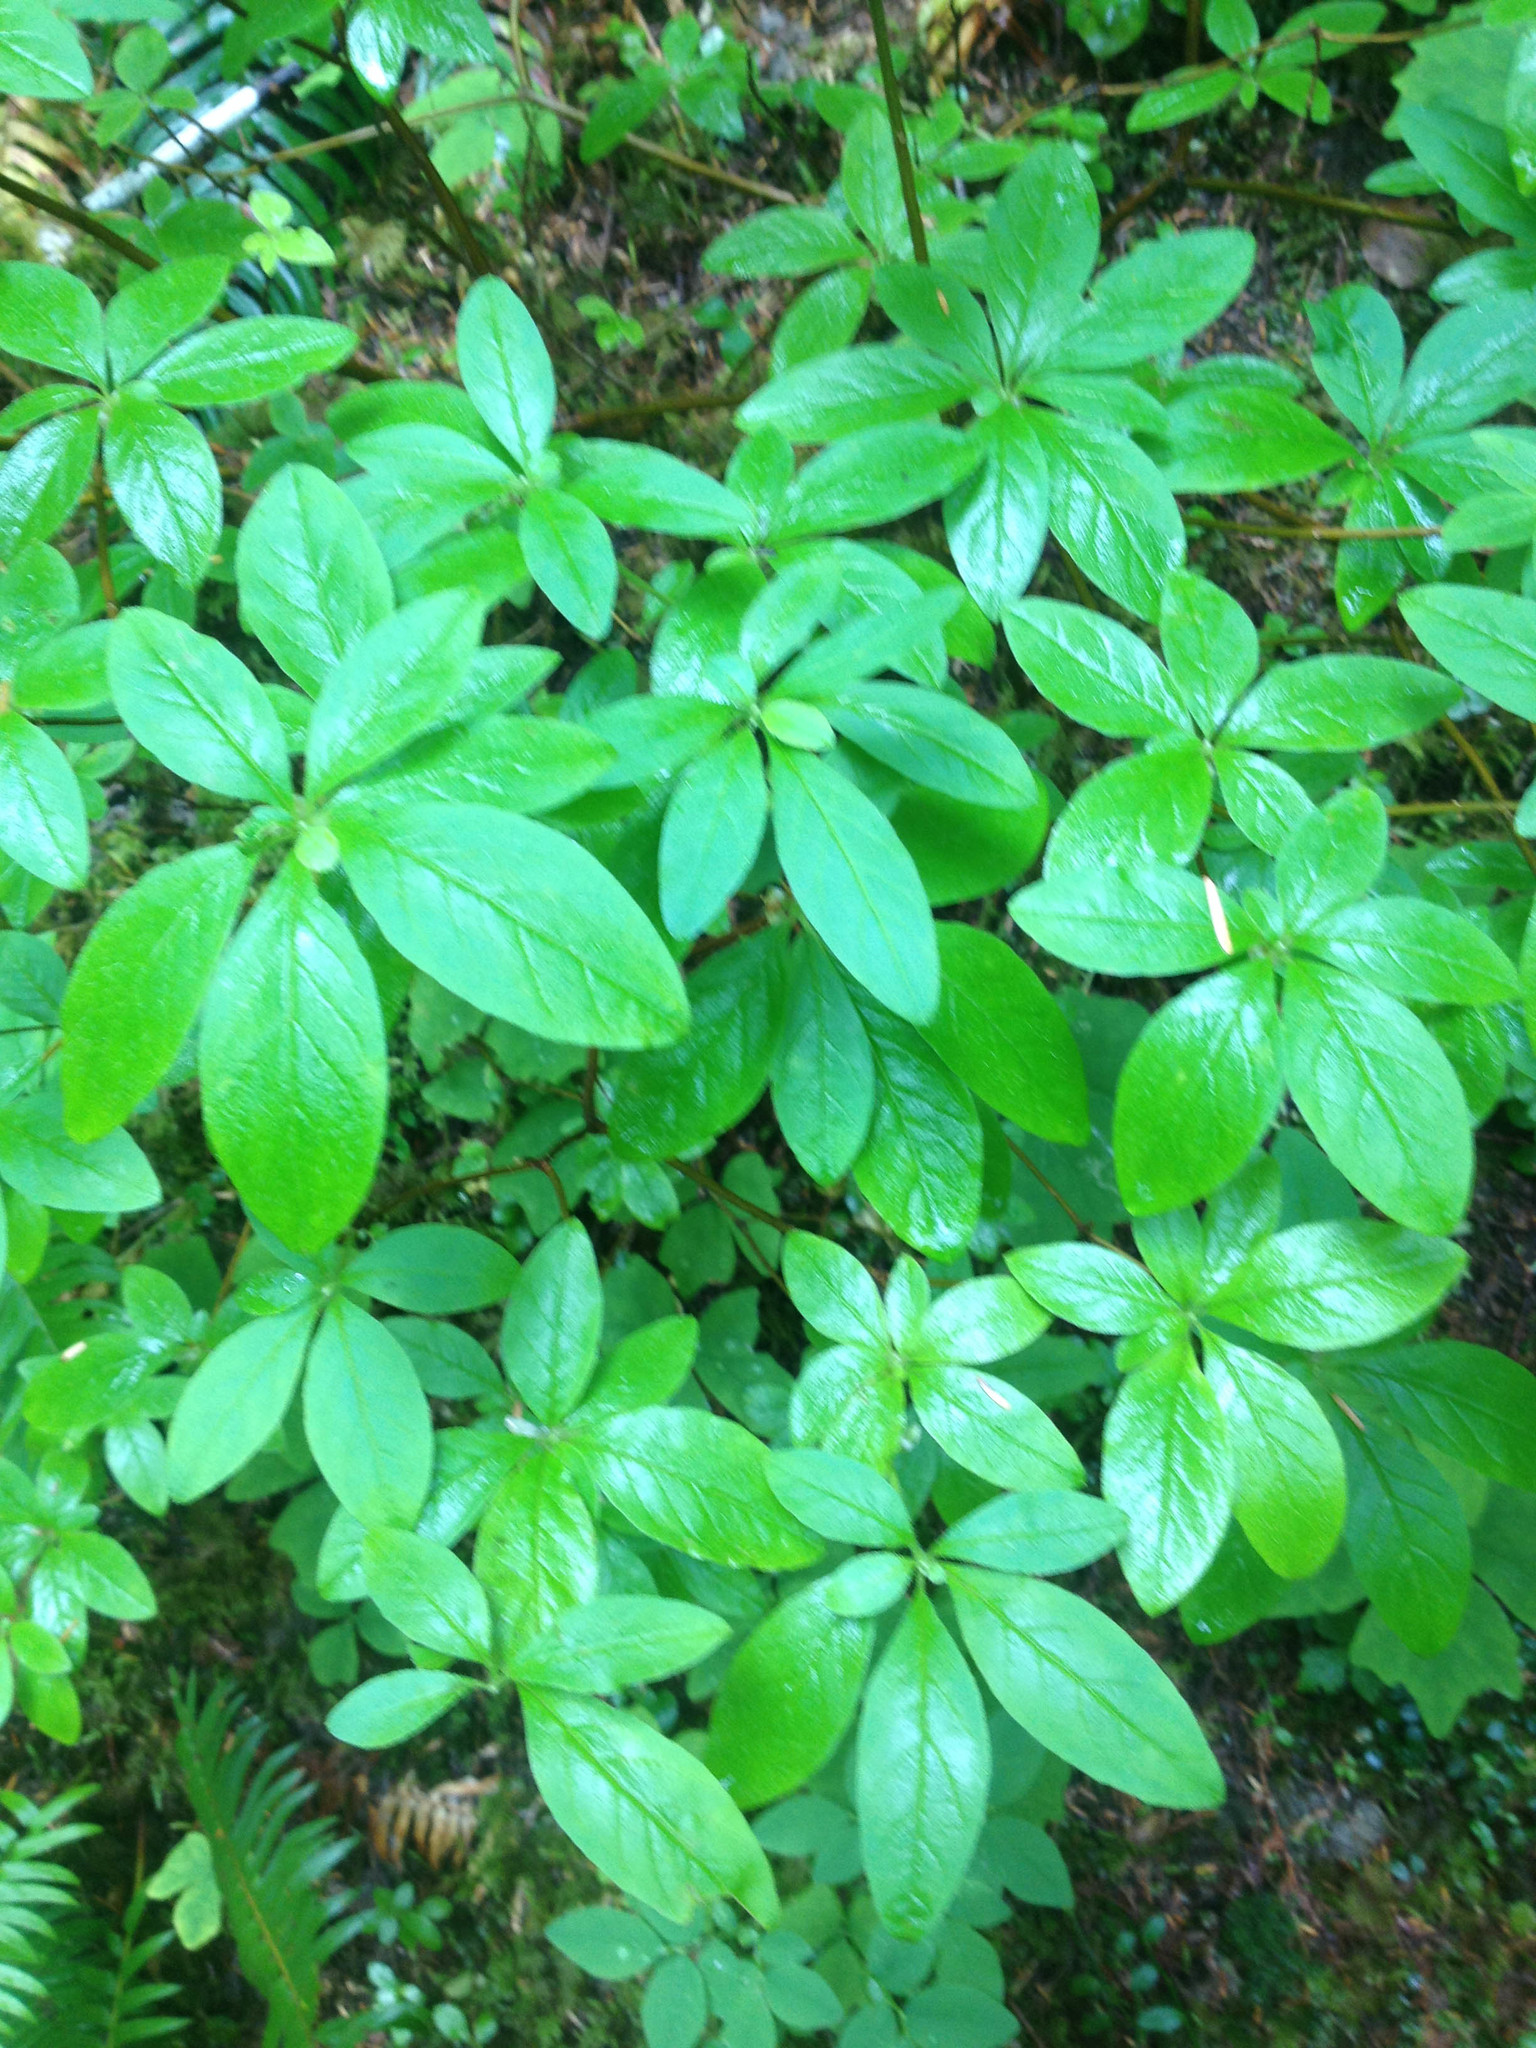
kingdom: Plantae
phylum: Tracheophyta
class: Magnoliopsida
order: Ericales
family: Ericaceae
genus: Rhododendron
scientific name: Rhododendron menziesii
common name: Pacific menziesia
